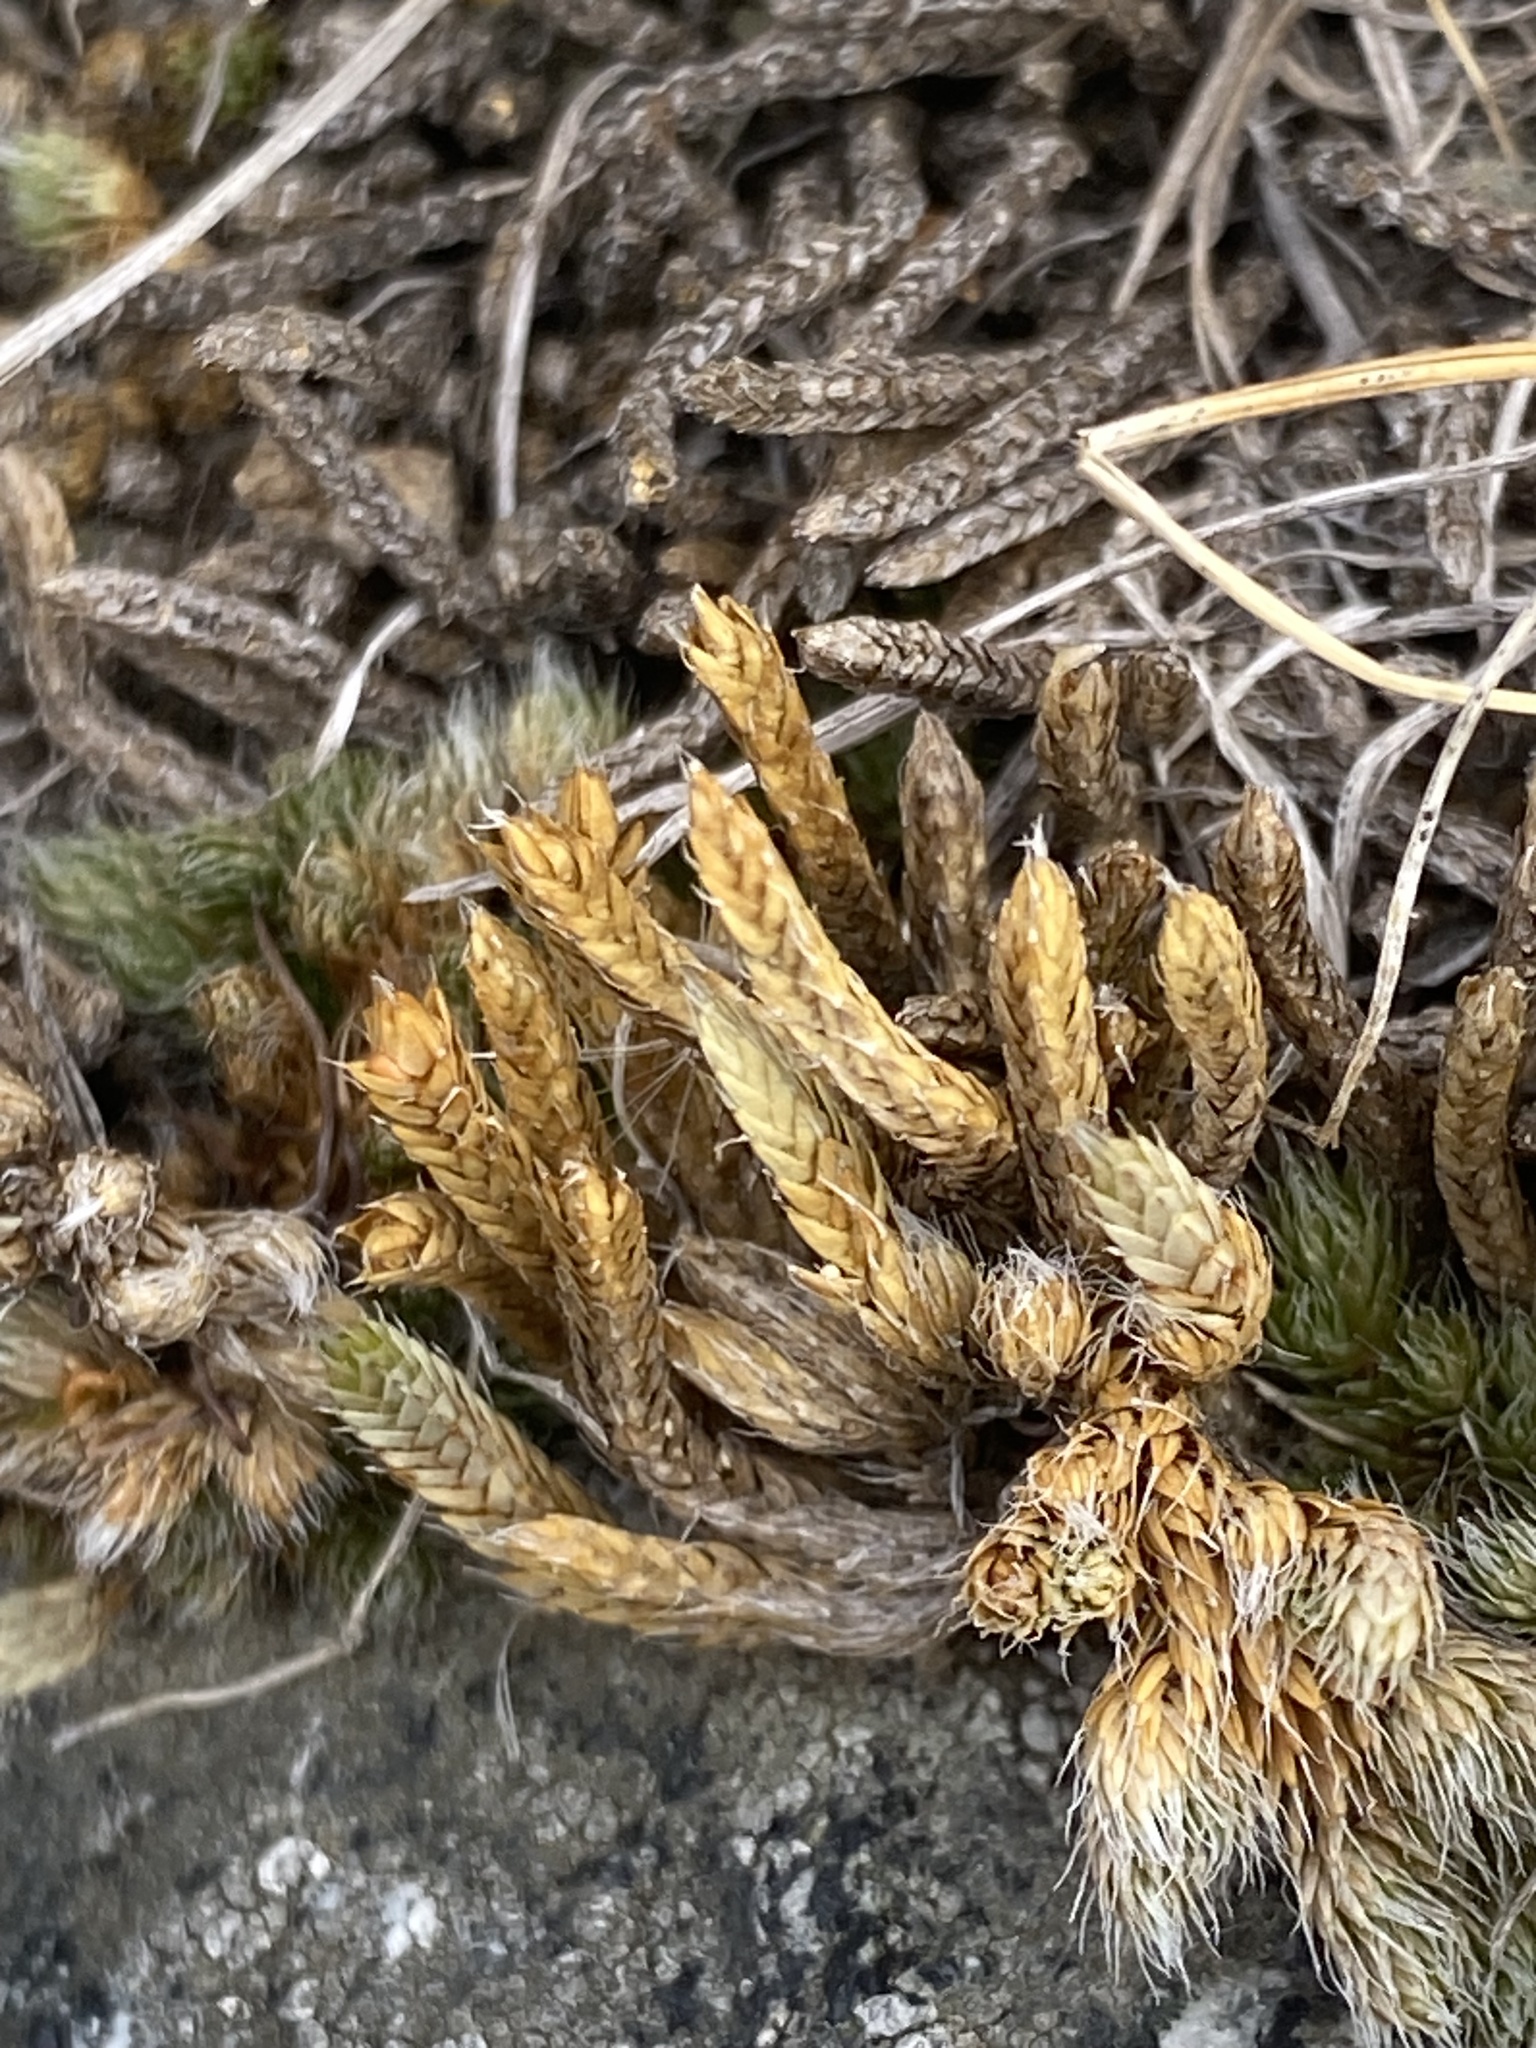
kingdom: Plantae
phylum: Tracheophyta
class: Lycopodiopsida
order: Selaginellales
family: Selaginellaceae
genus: Selaginella
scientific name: Selaginella densa
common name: Mountain spike-moss
